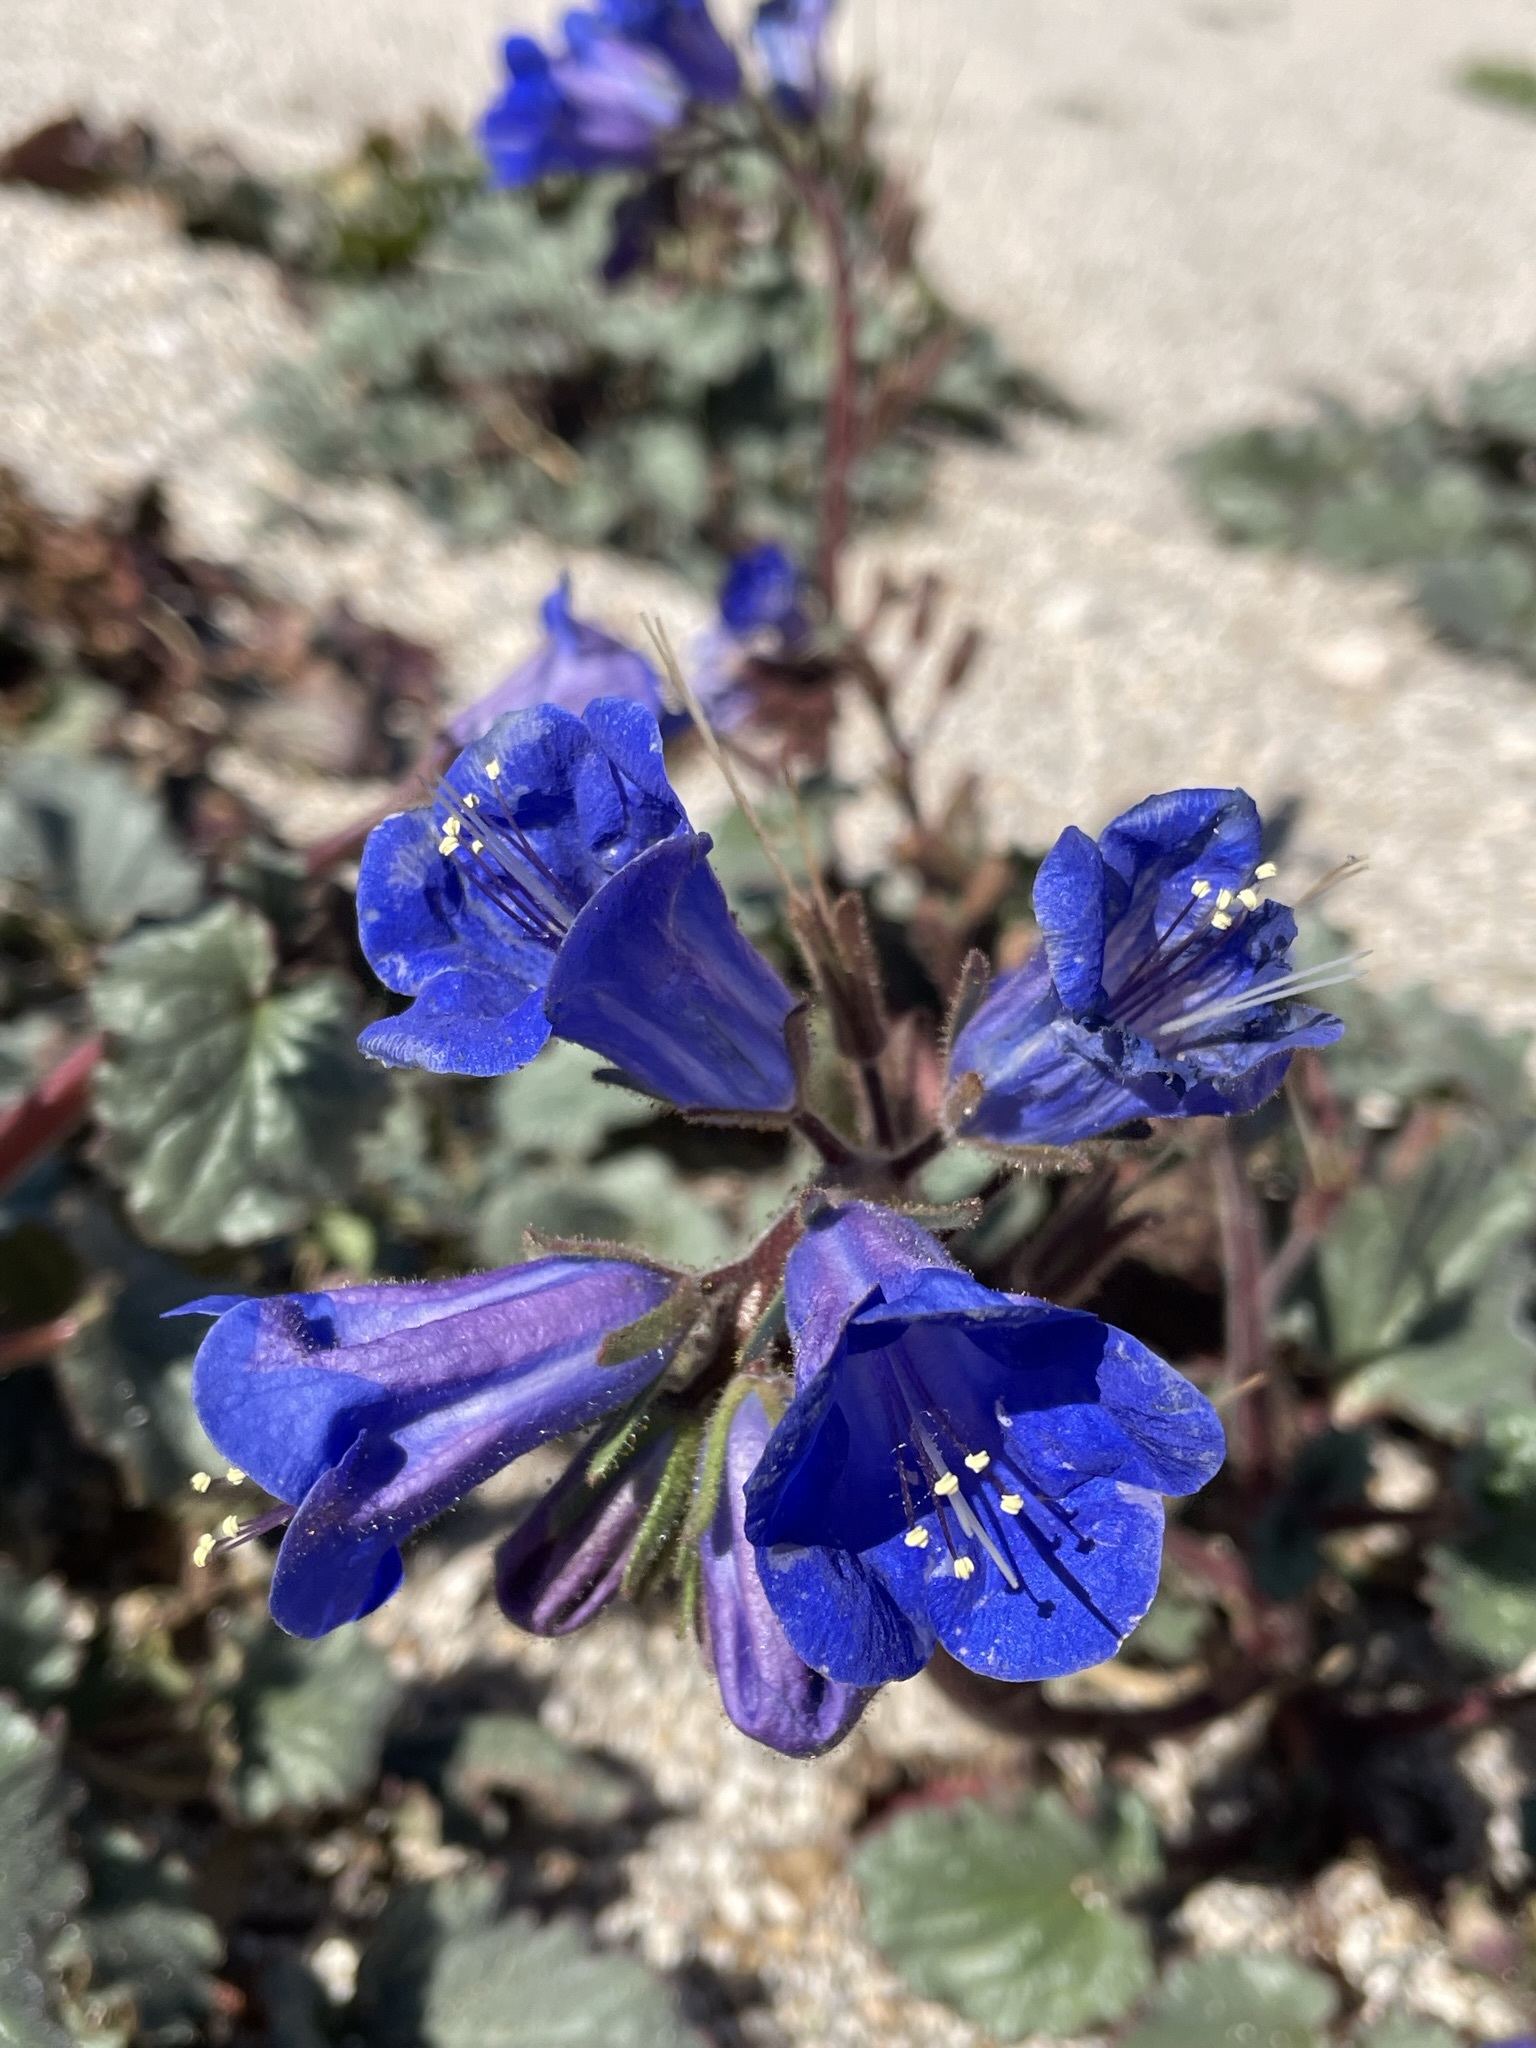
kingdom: Plantae
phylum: Tracheophyta
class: Magnoliopsida
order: Boraginales
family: Hydrophyllaceae
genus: Phacelia
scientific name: Phacelia campanularia
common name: California bluebell
